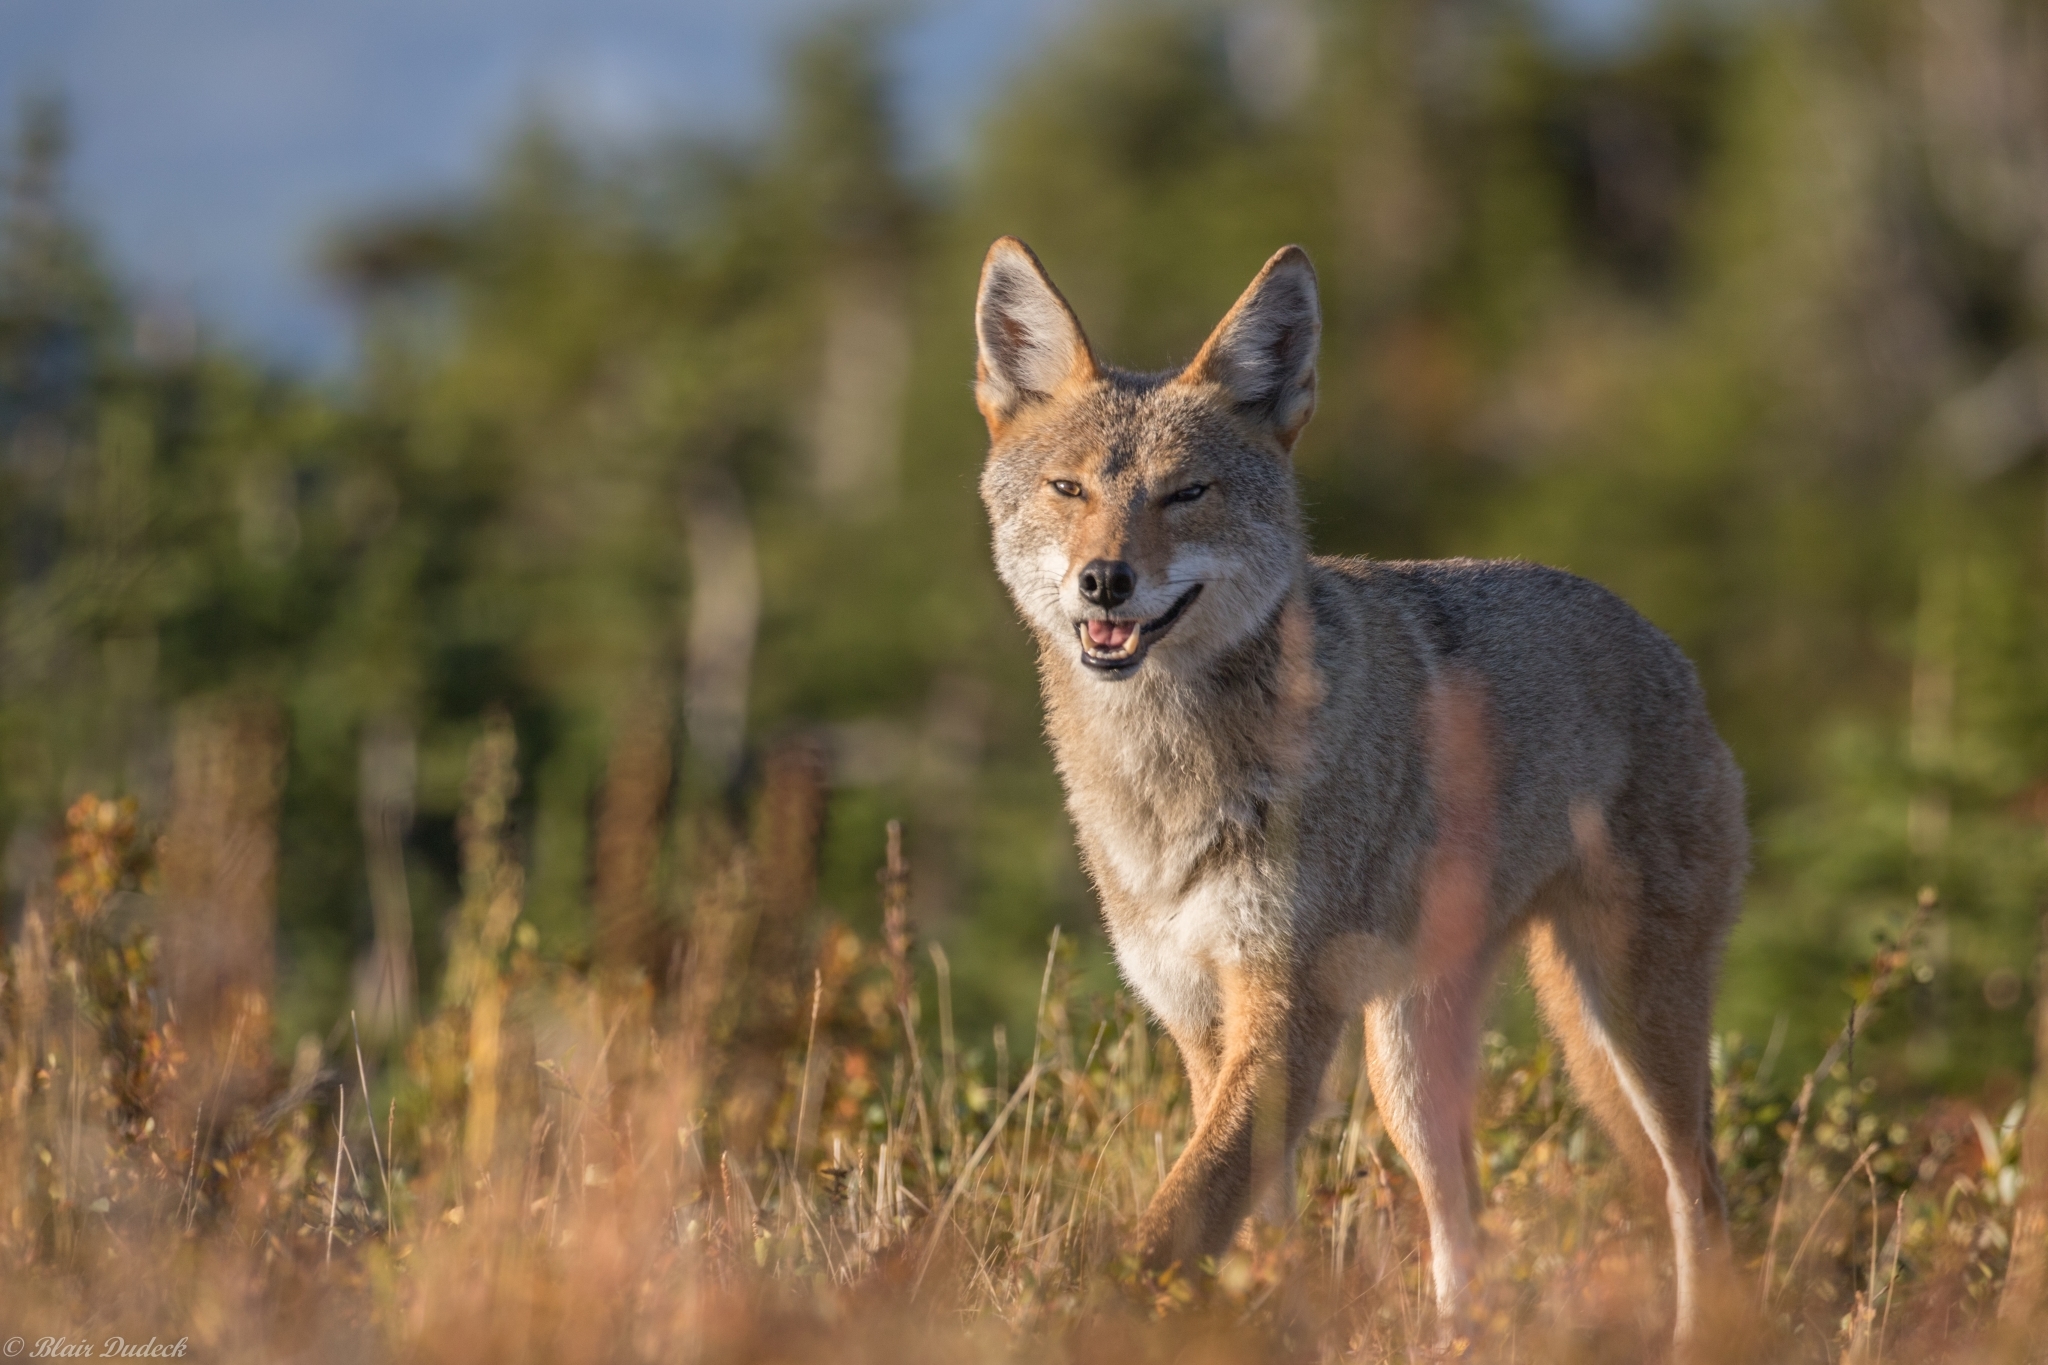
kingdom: Animalia
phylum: Chordata
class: Mammalia
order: Carnivora
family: Canidae
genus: Canis
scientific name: Canis latrans
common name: Coyote
